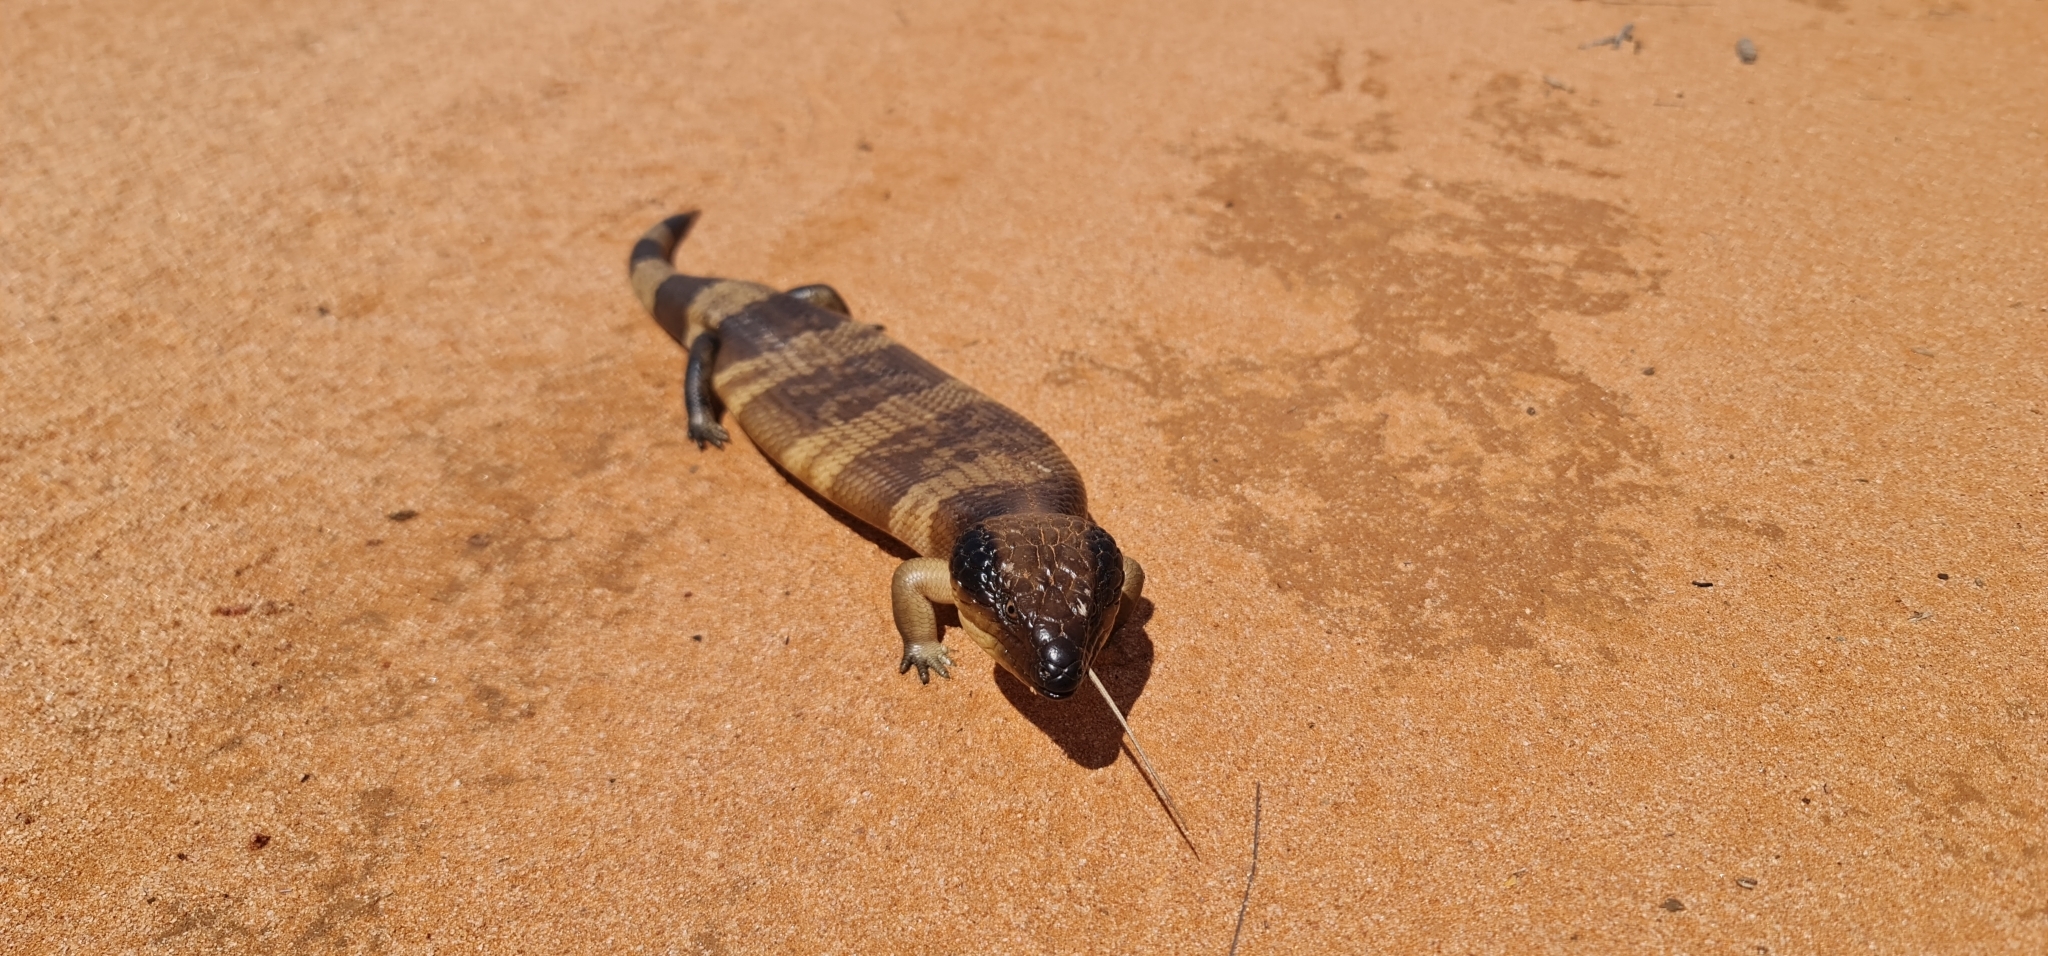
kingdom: Animalia
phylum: Chordata
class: Squamata
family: Scincidae
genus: Tiliqua
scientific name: Tiliqua occipitalis
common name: Western blue-tongued lizard
